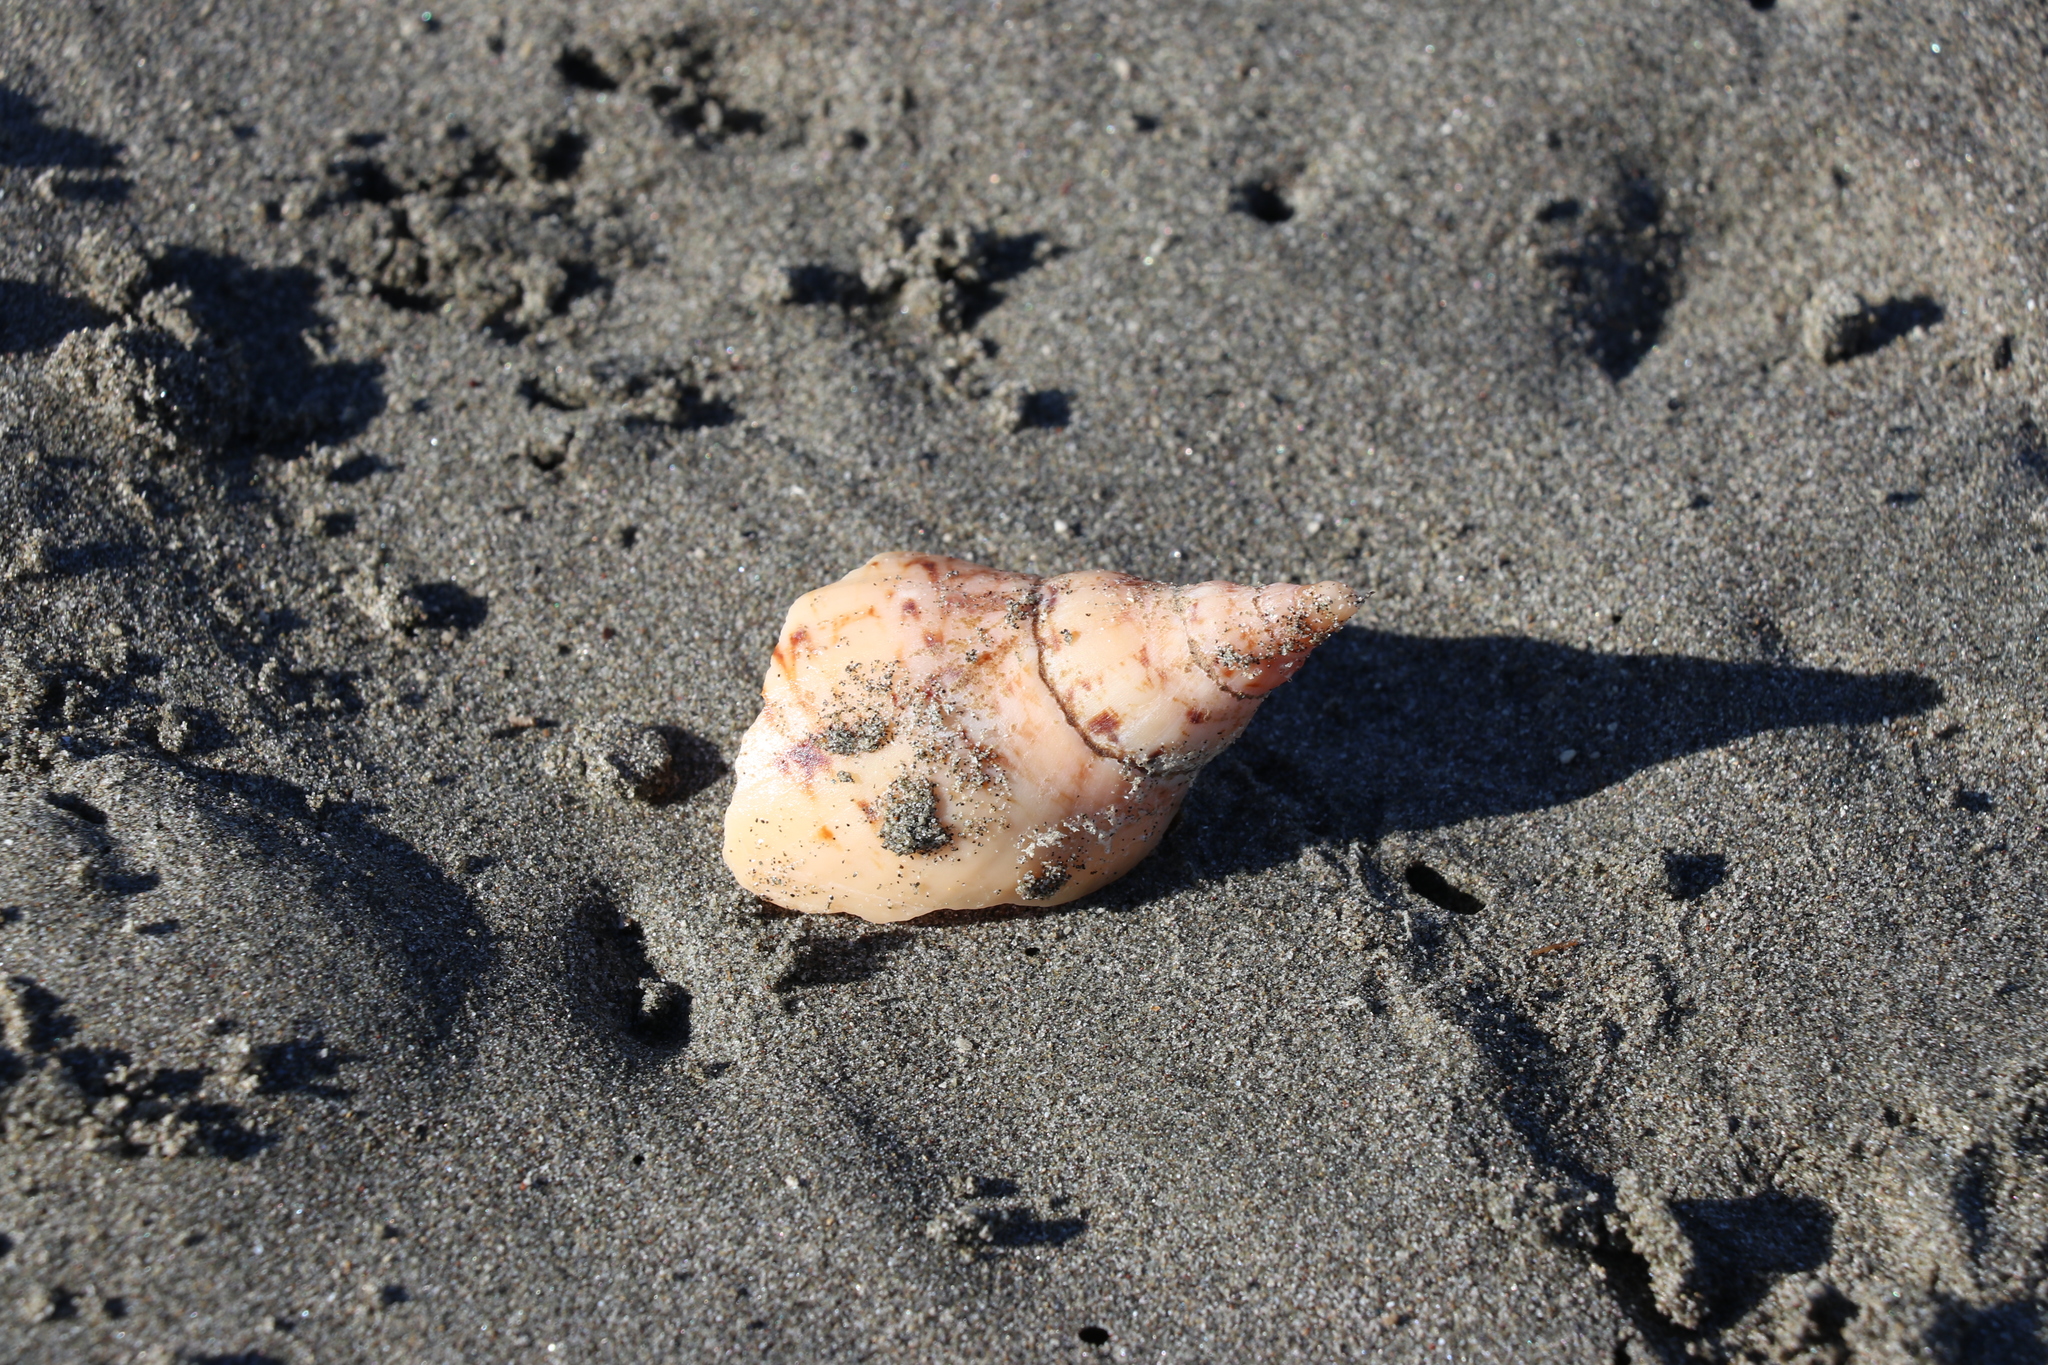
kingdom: Animalia
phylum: Mollusca
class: Gastropoda
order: Neogastropoda
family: Volutidae
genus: Alcithoe
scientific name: Alcithoe arabica
